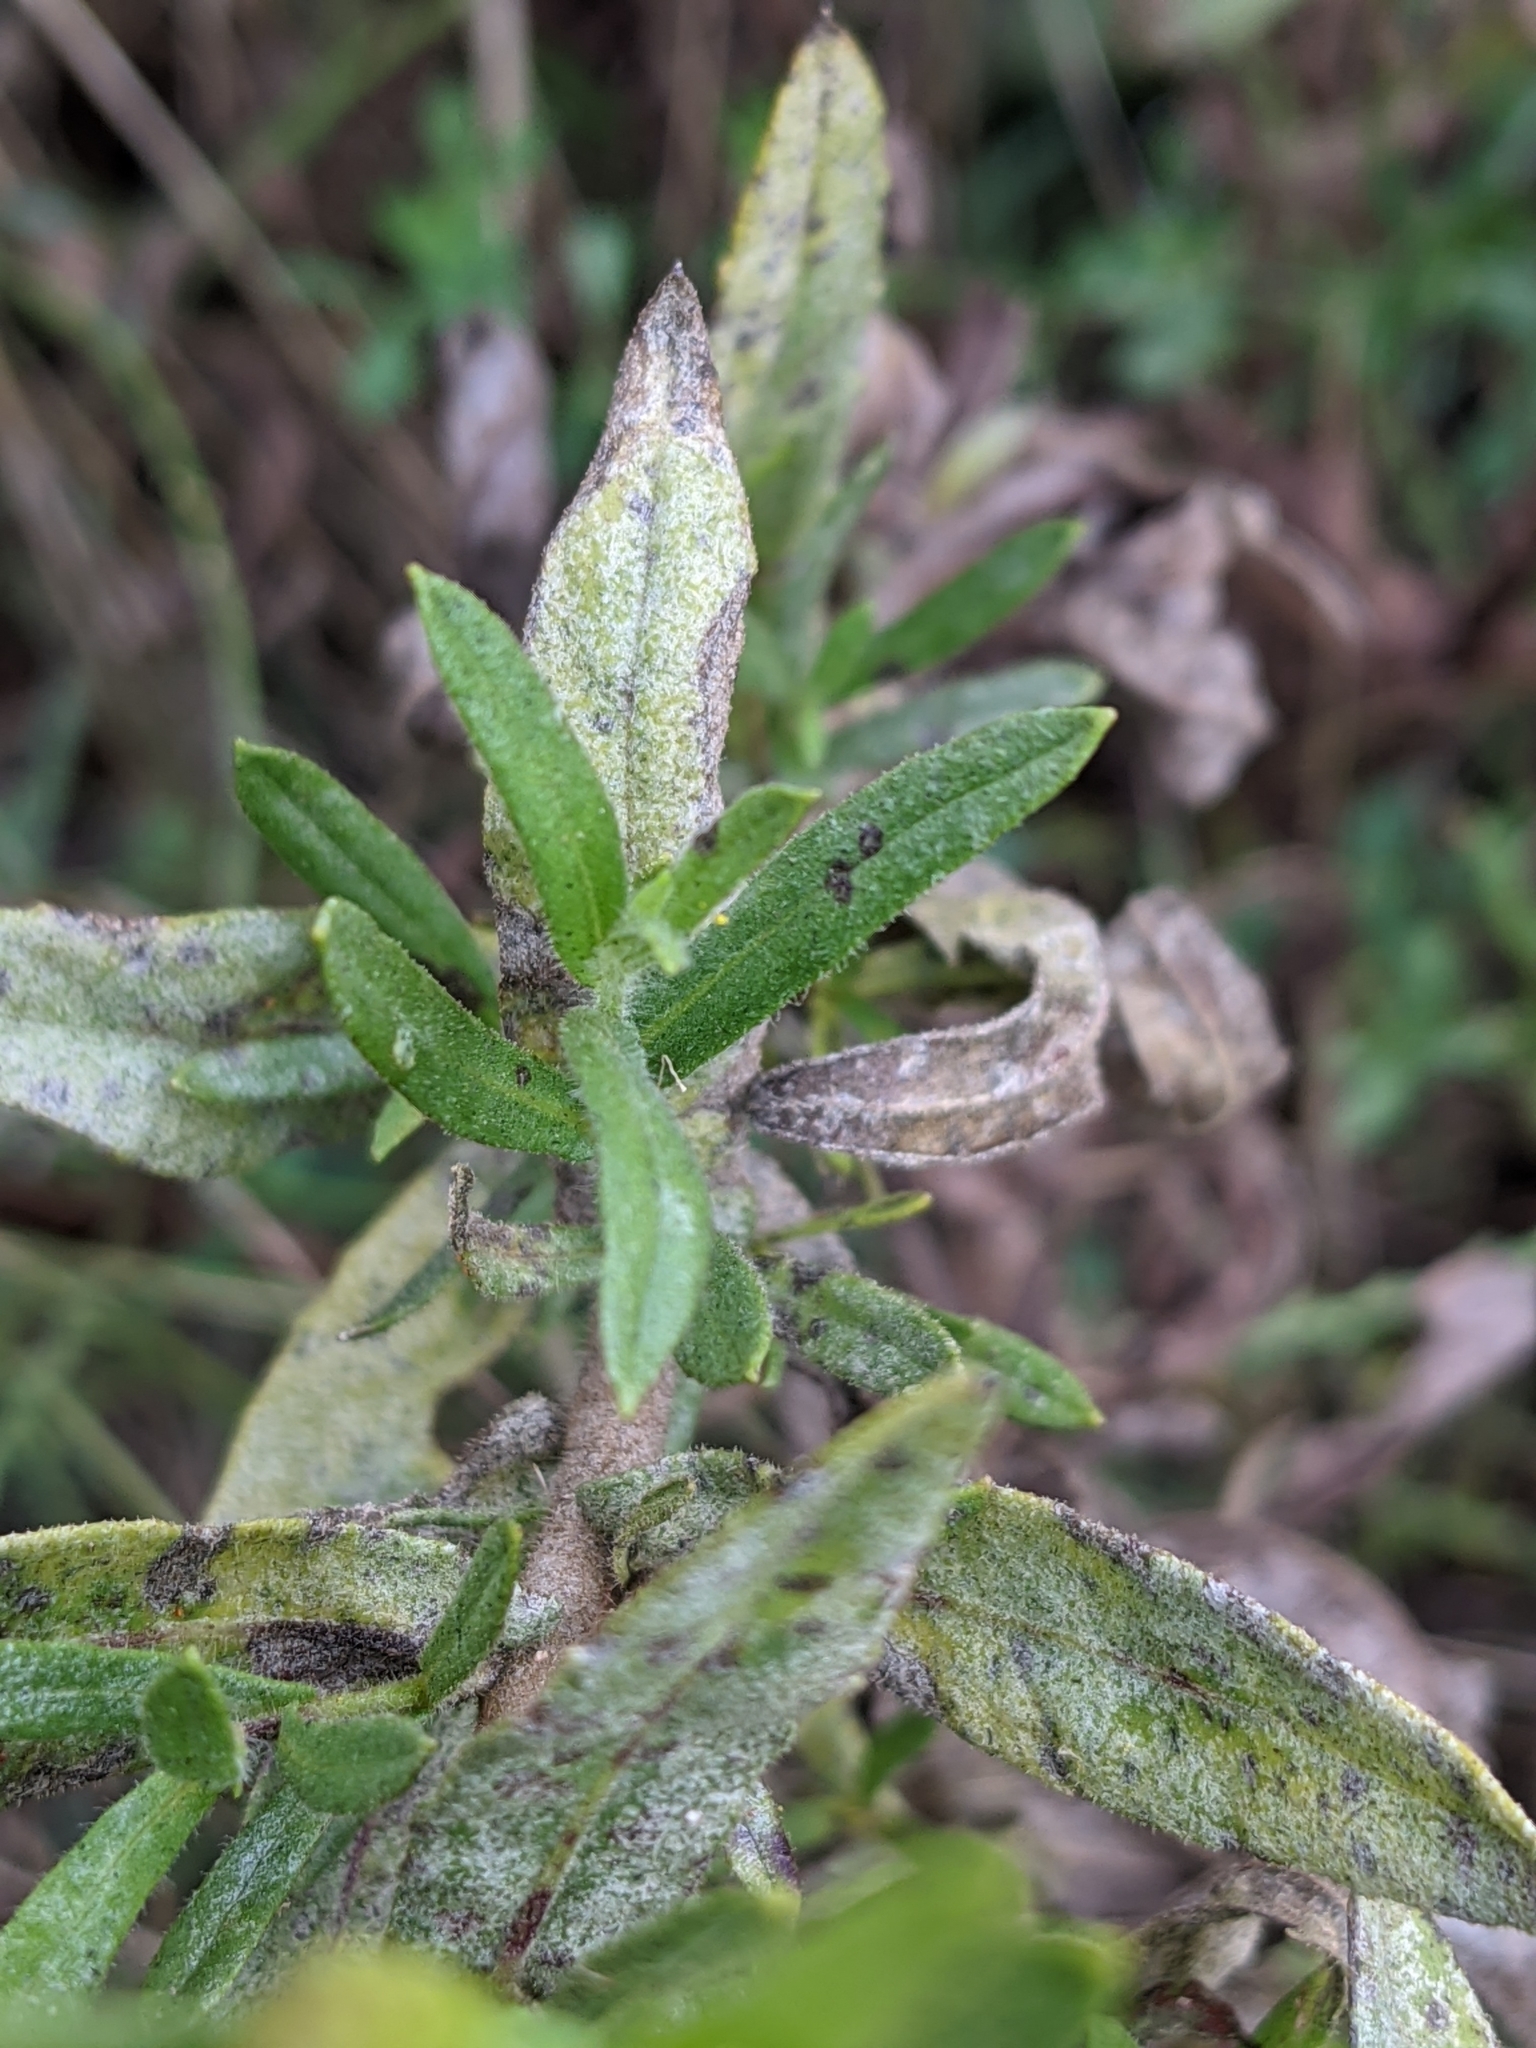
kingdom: Plantae
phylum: Tracheophyta
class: Magnoliopsida
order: Asterales
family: Asteraceae
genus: Dittrichia
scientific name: Dittrichia viscosa
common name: Woody fleabane
